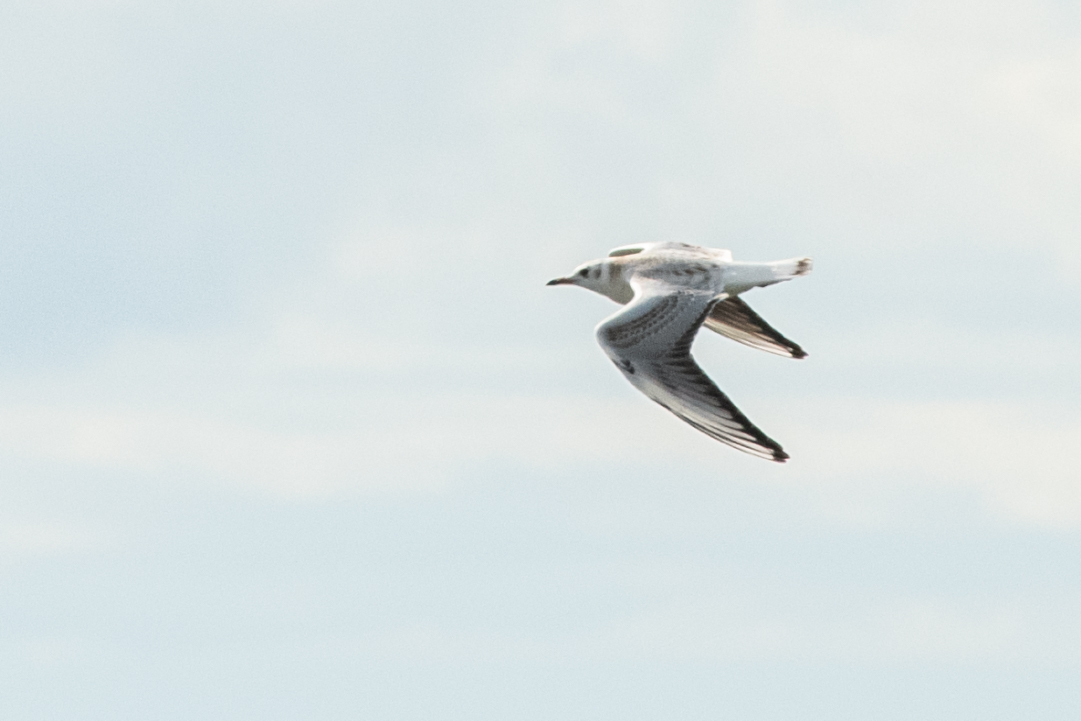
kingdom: Animalia
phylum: Chordata
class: Aves
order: Charadriiformes
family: Laridae
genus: Chroicocephalus
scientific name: Chroicocephalus ridibundus
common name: Black-headed gull
